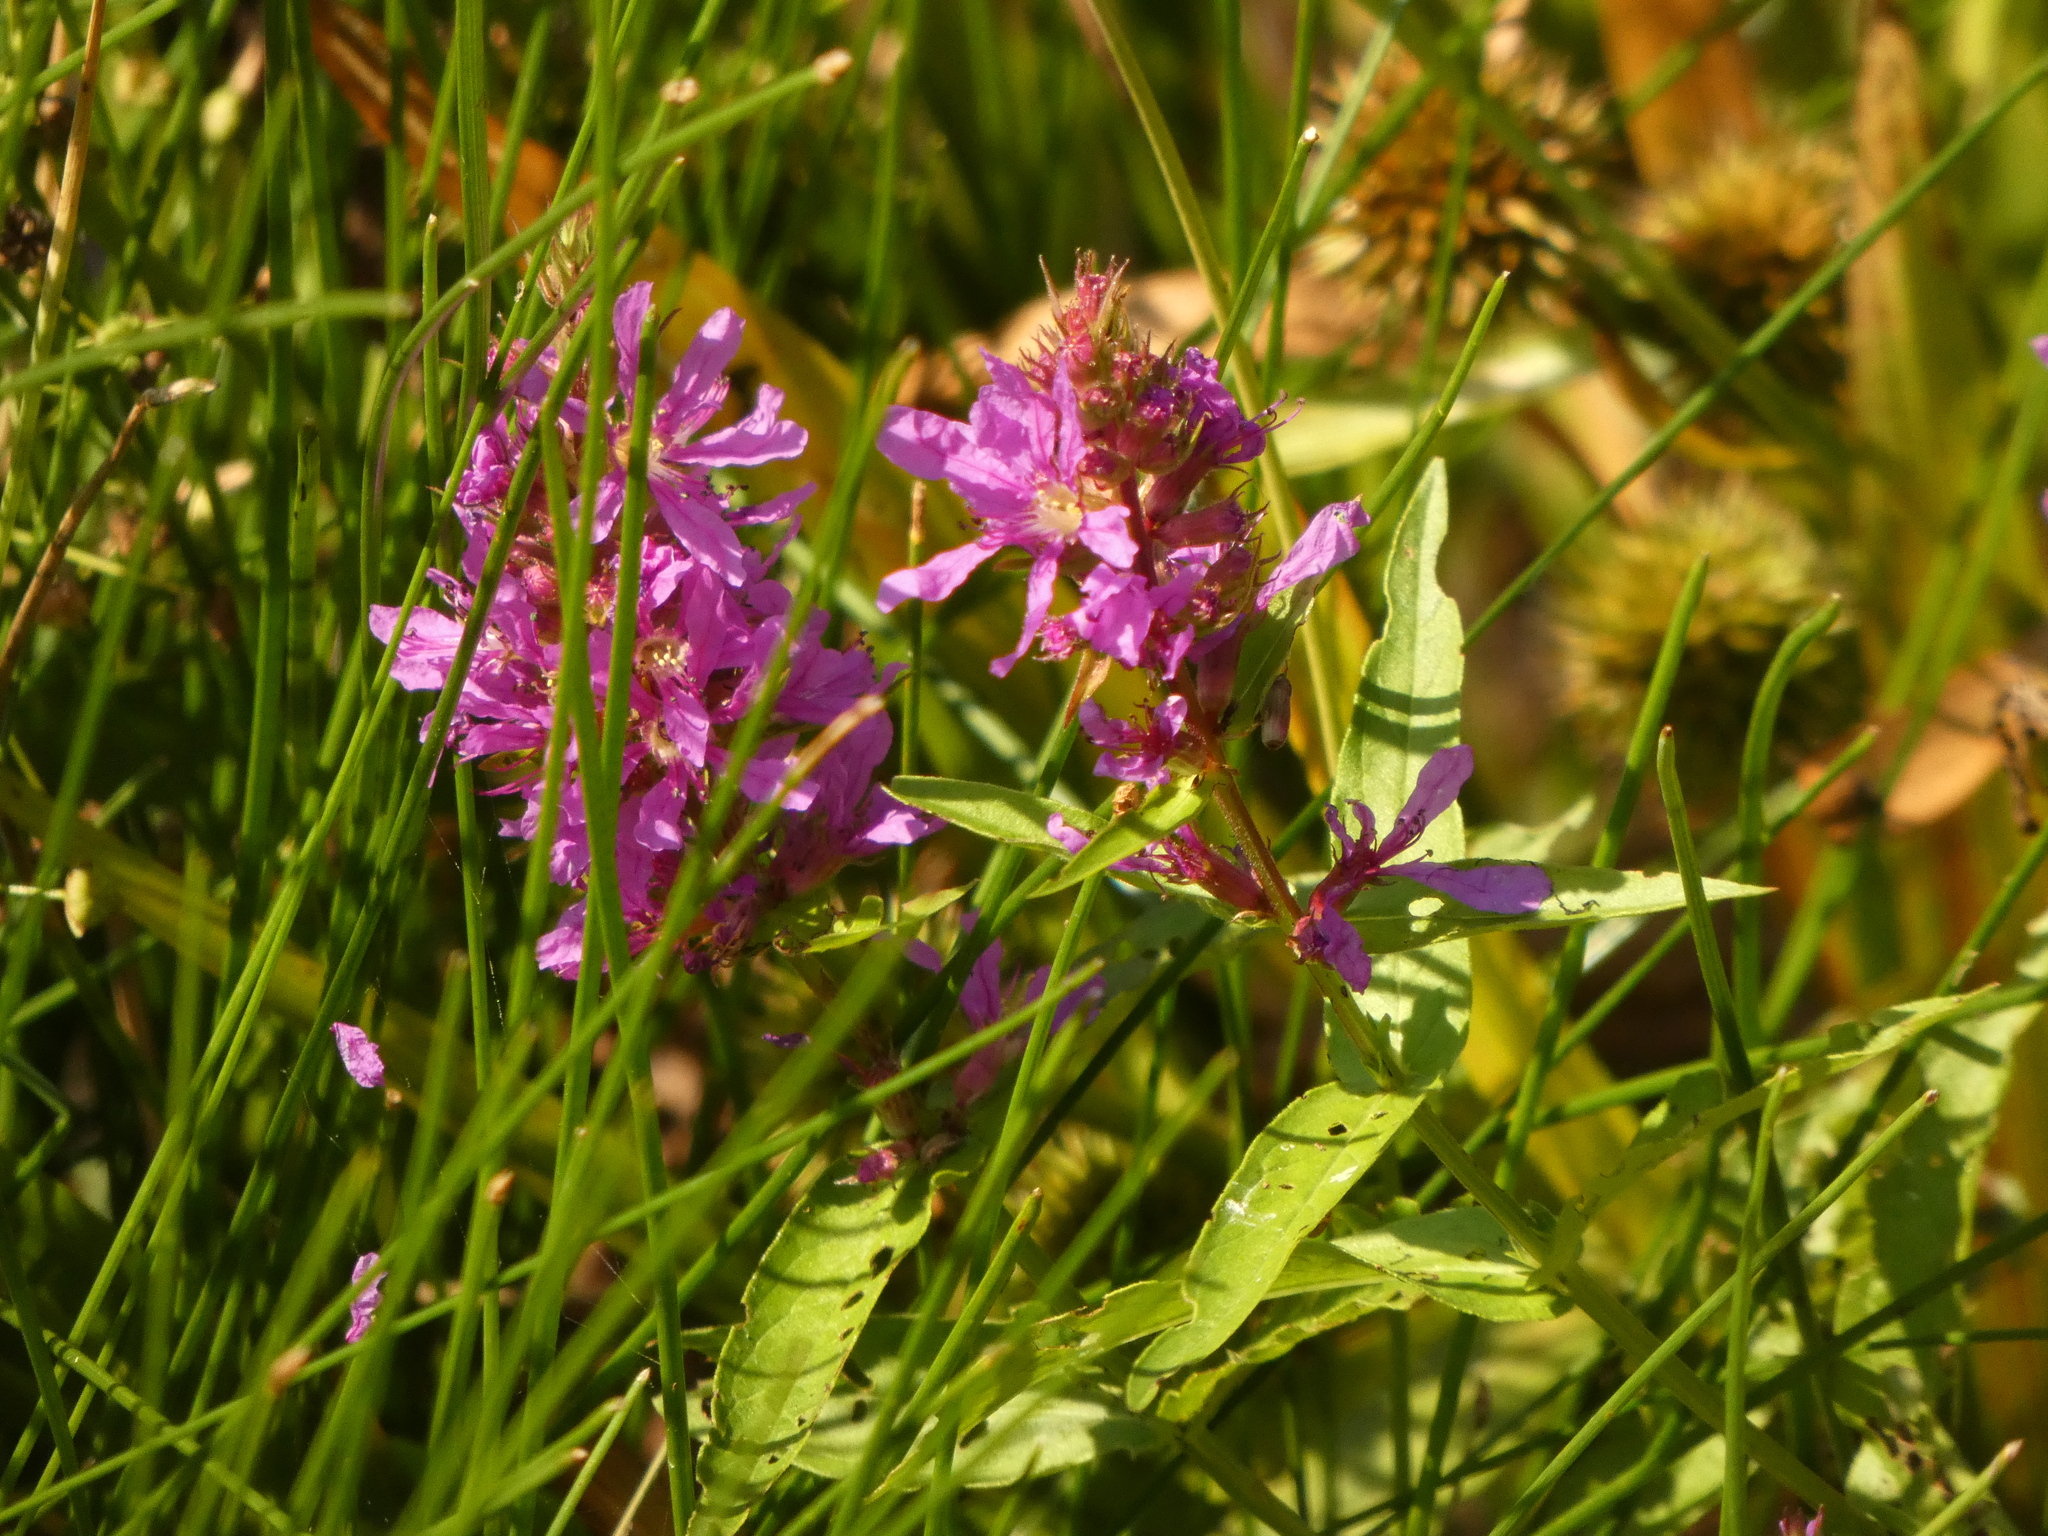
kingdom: Plantae
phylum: Tracheophyta
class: Magnoliopsida
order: Myrtales
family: Lythraceae
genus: Lythrum
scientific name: Lythrum salicaria
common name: Purple loosestrife
